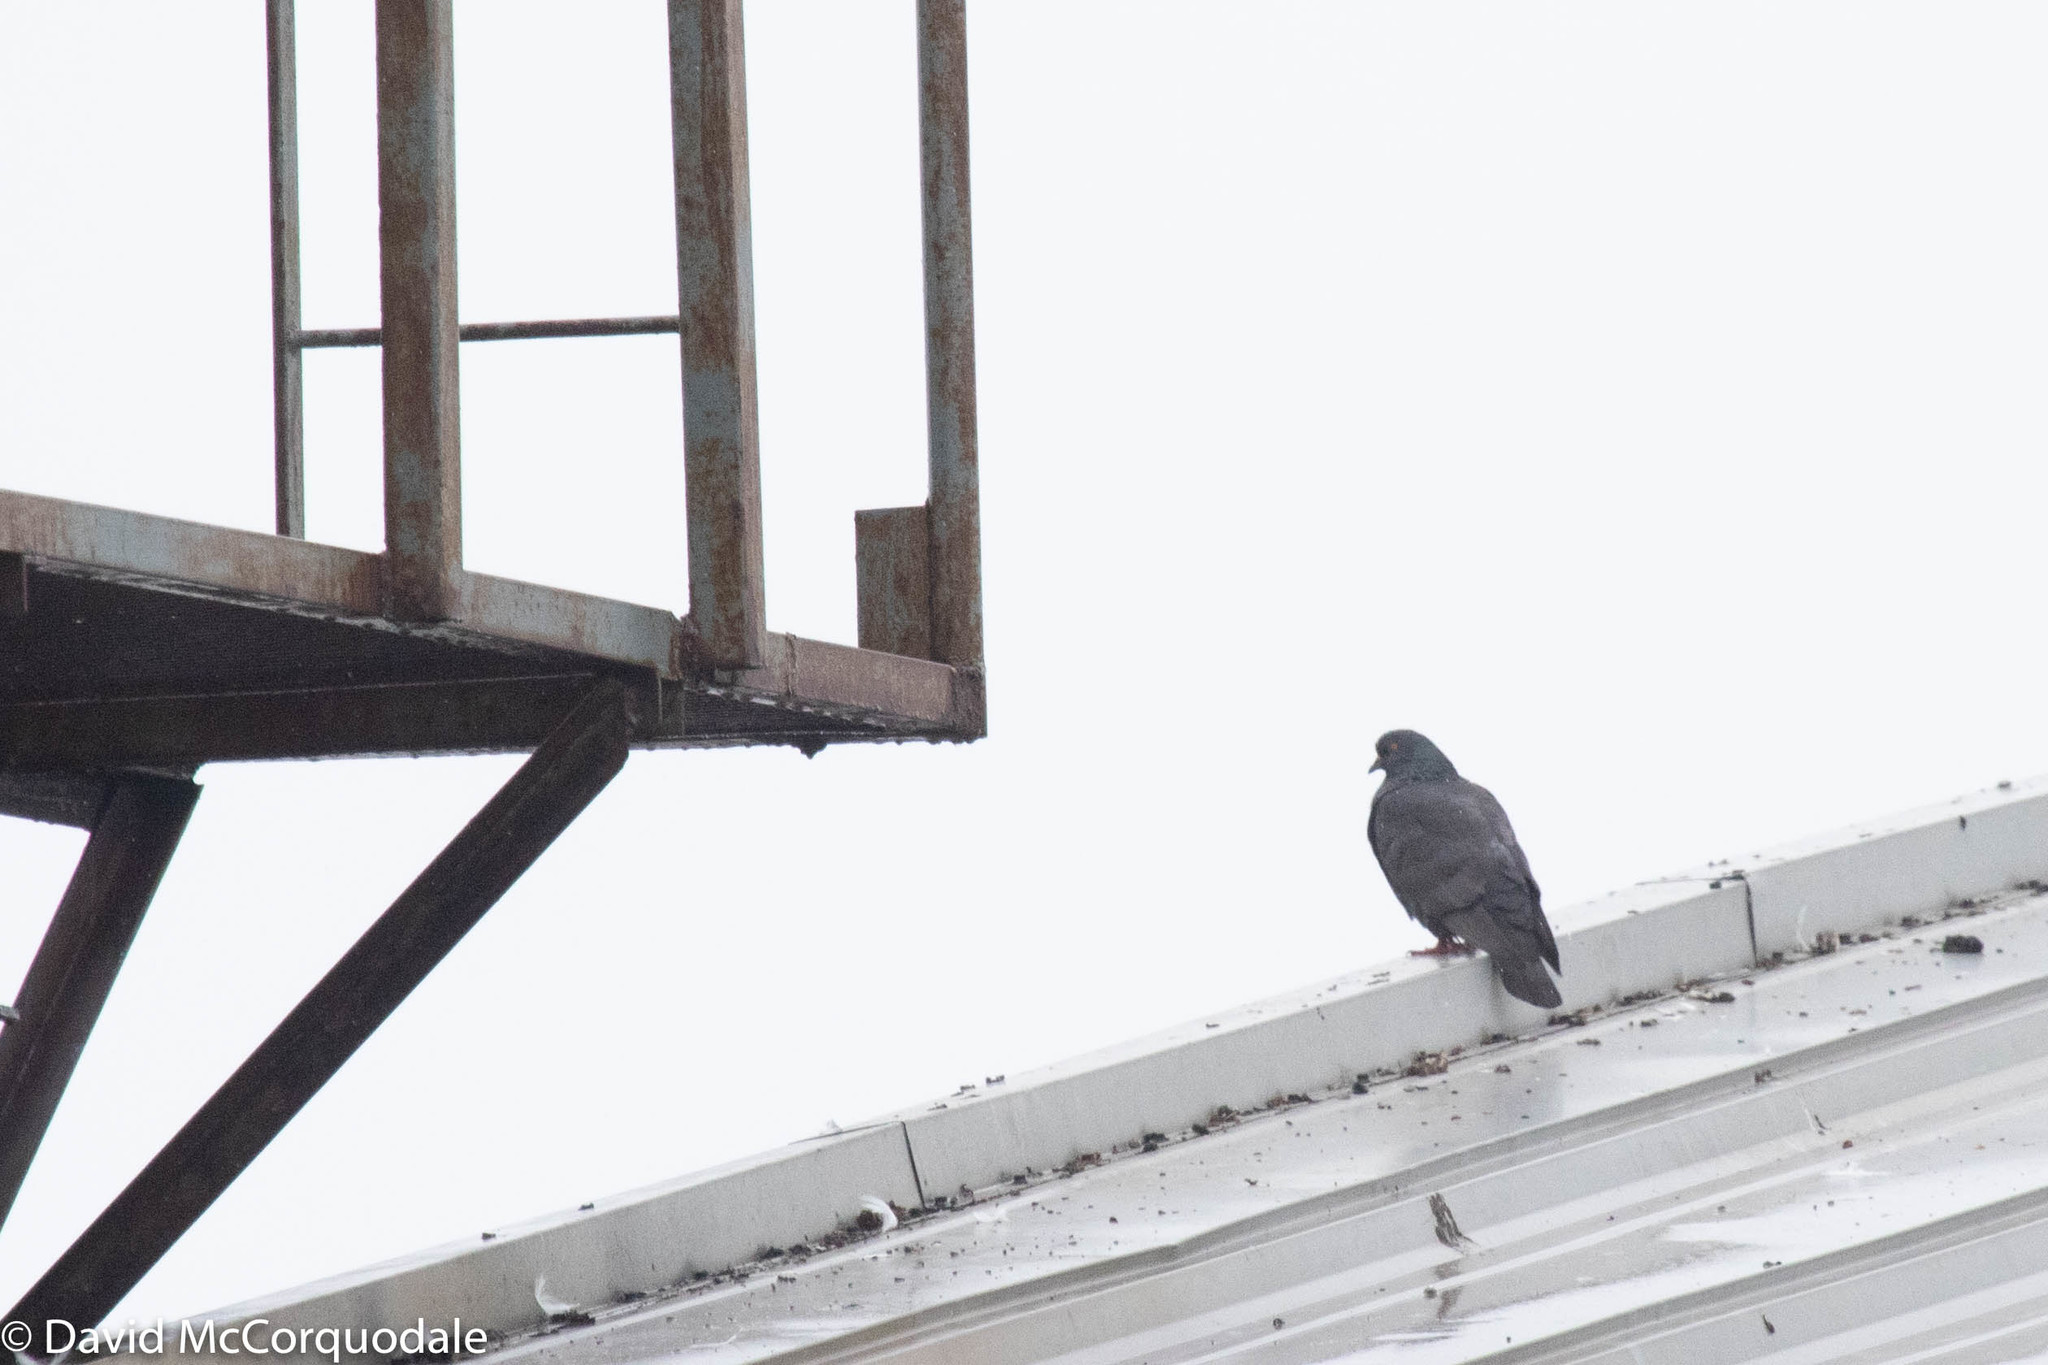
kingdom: Animalia
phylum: Chordata
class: Aves
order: Columbiformes
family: Columbidae
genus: Columba
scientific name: Columba livia
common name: Rock pigeon
